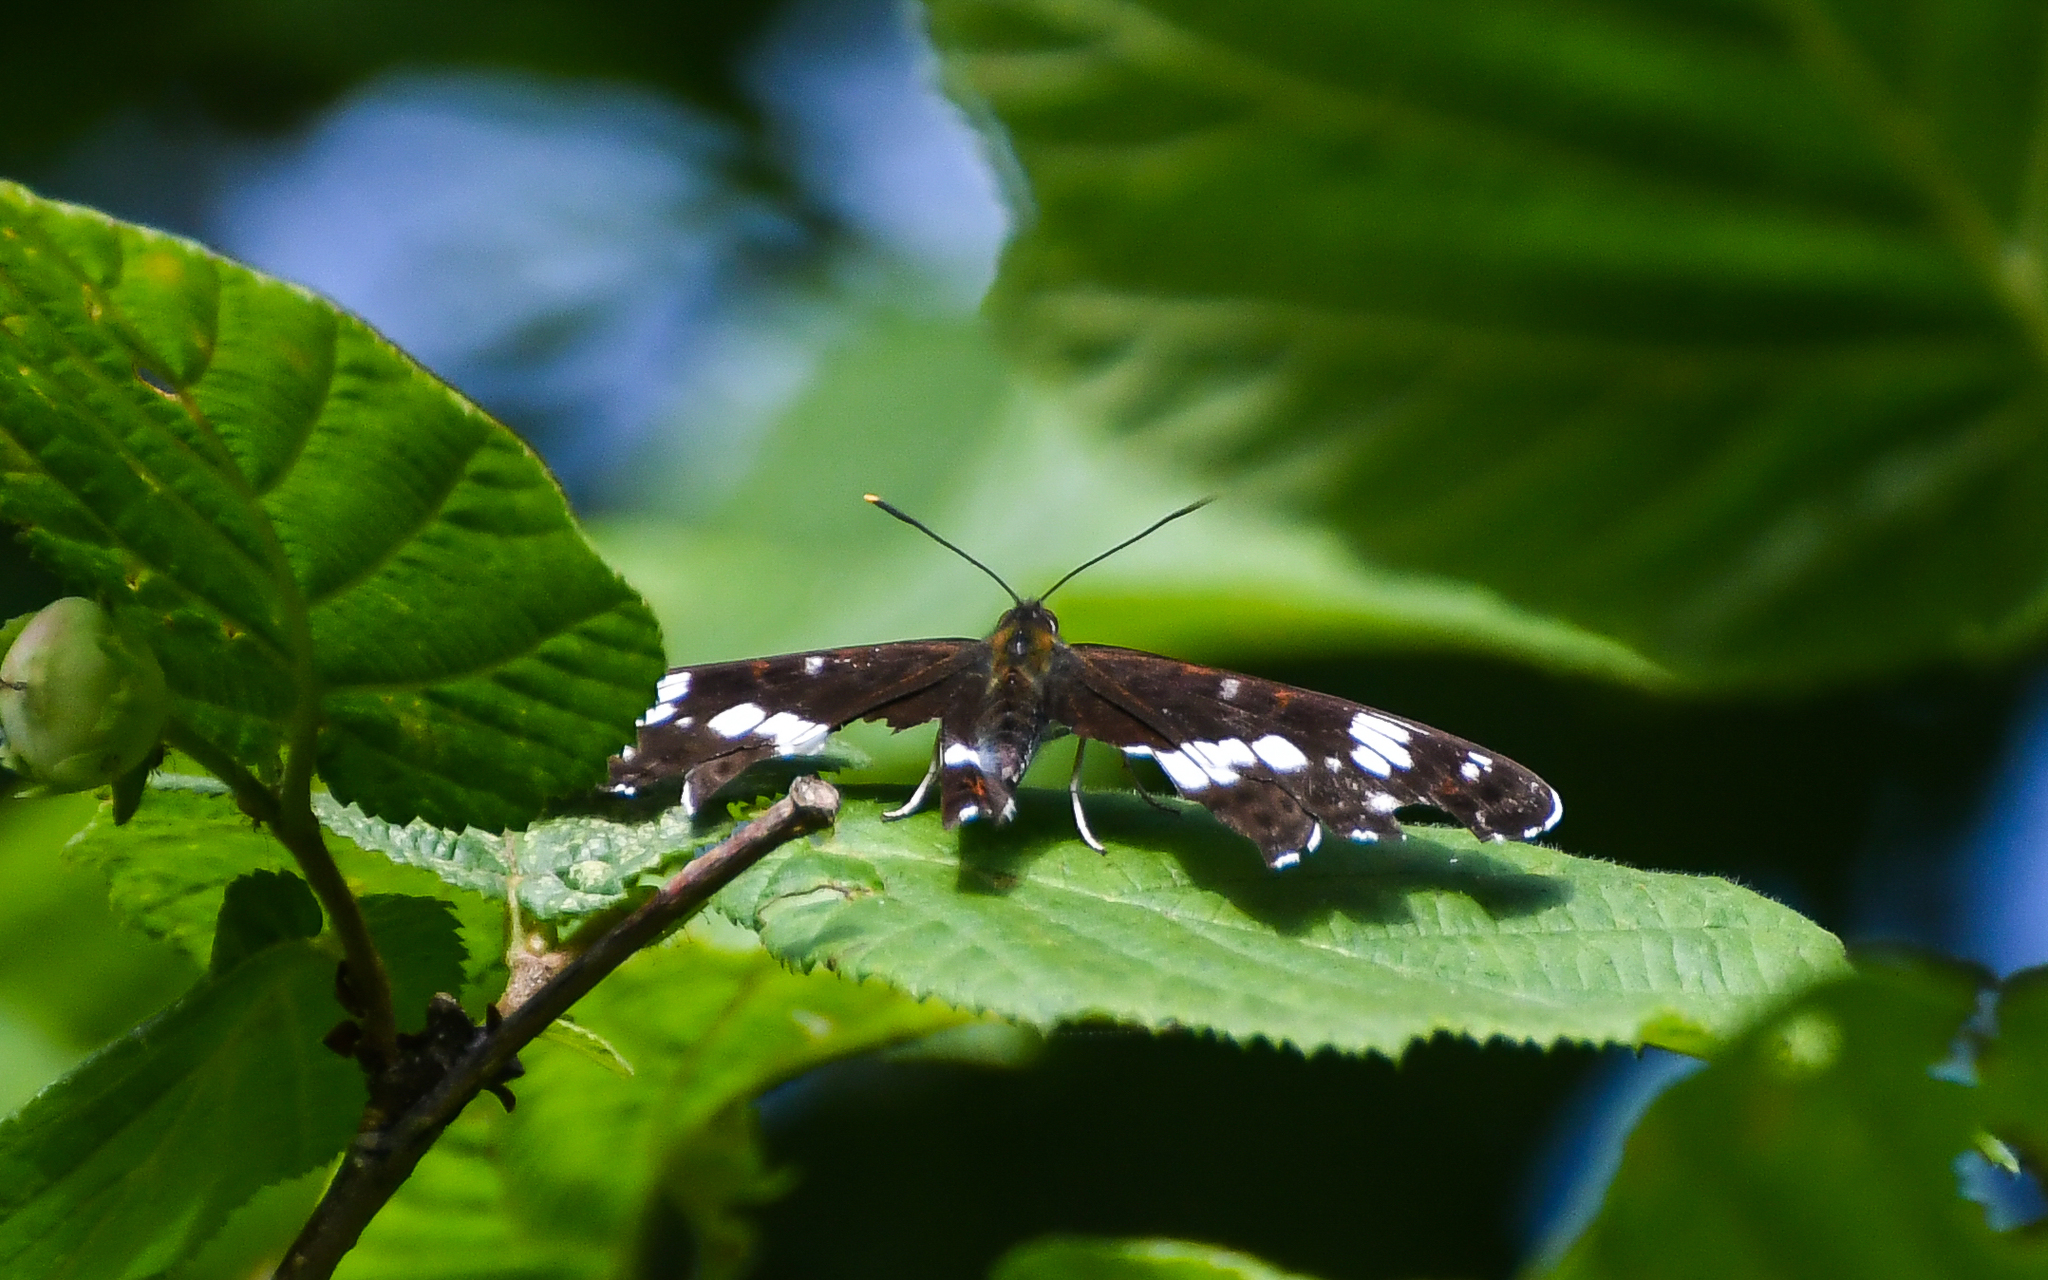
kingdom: Animalia
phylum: Arthropoda
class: Insecta
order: Lepidoptera
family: Nymphalidae
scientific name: Nymphalidae
